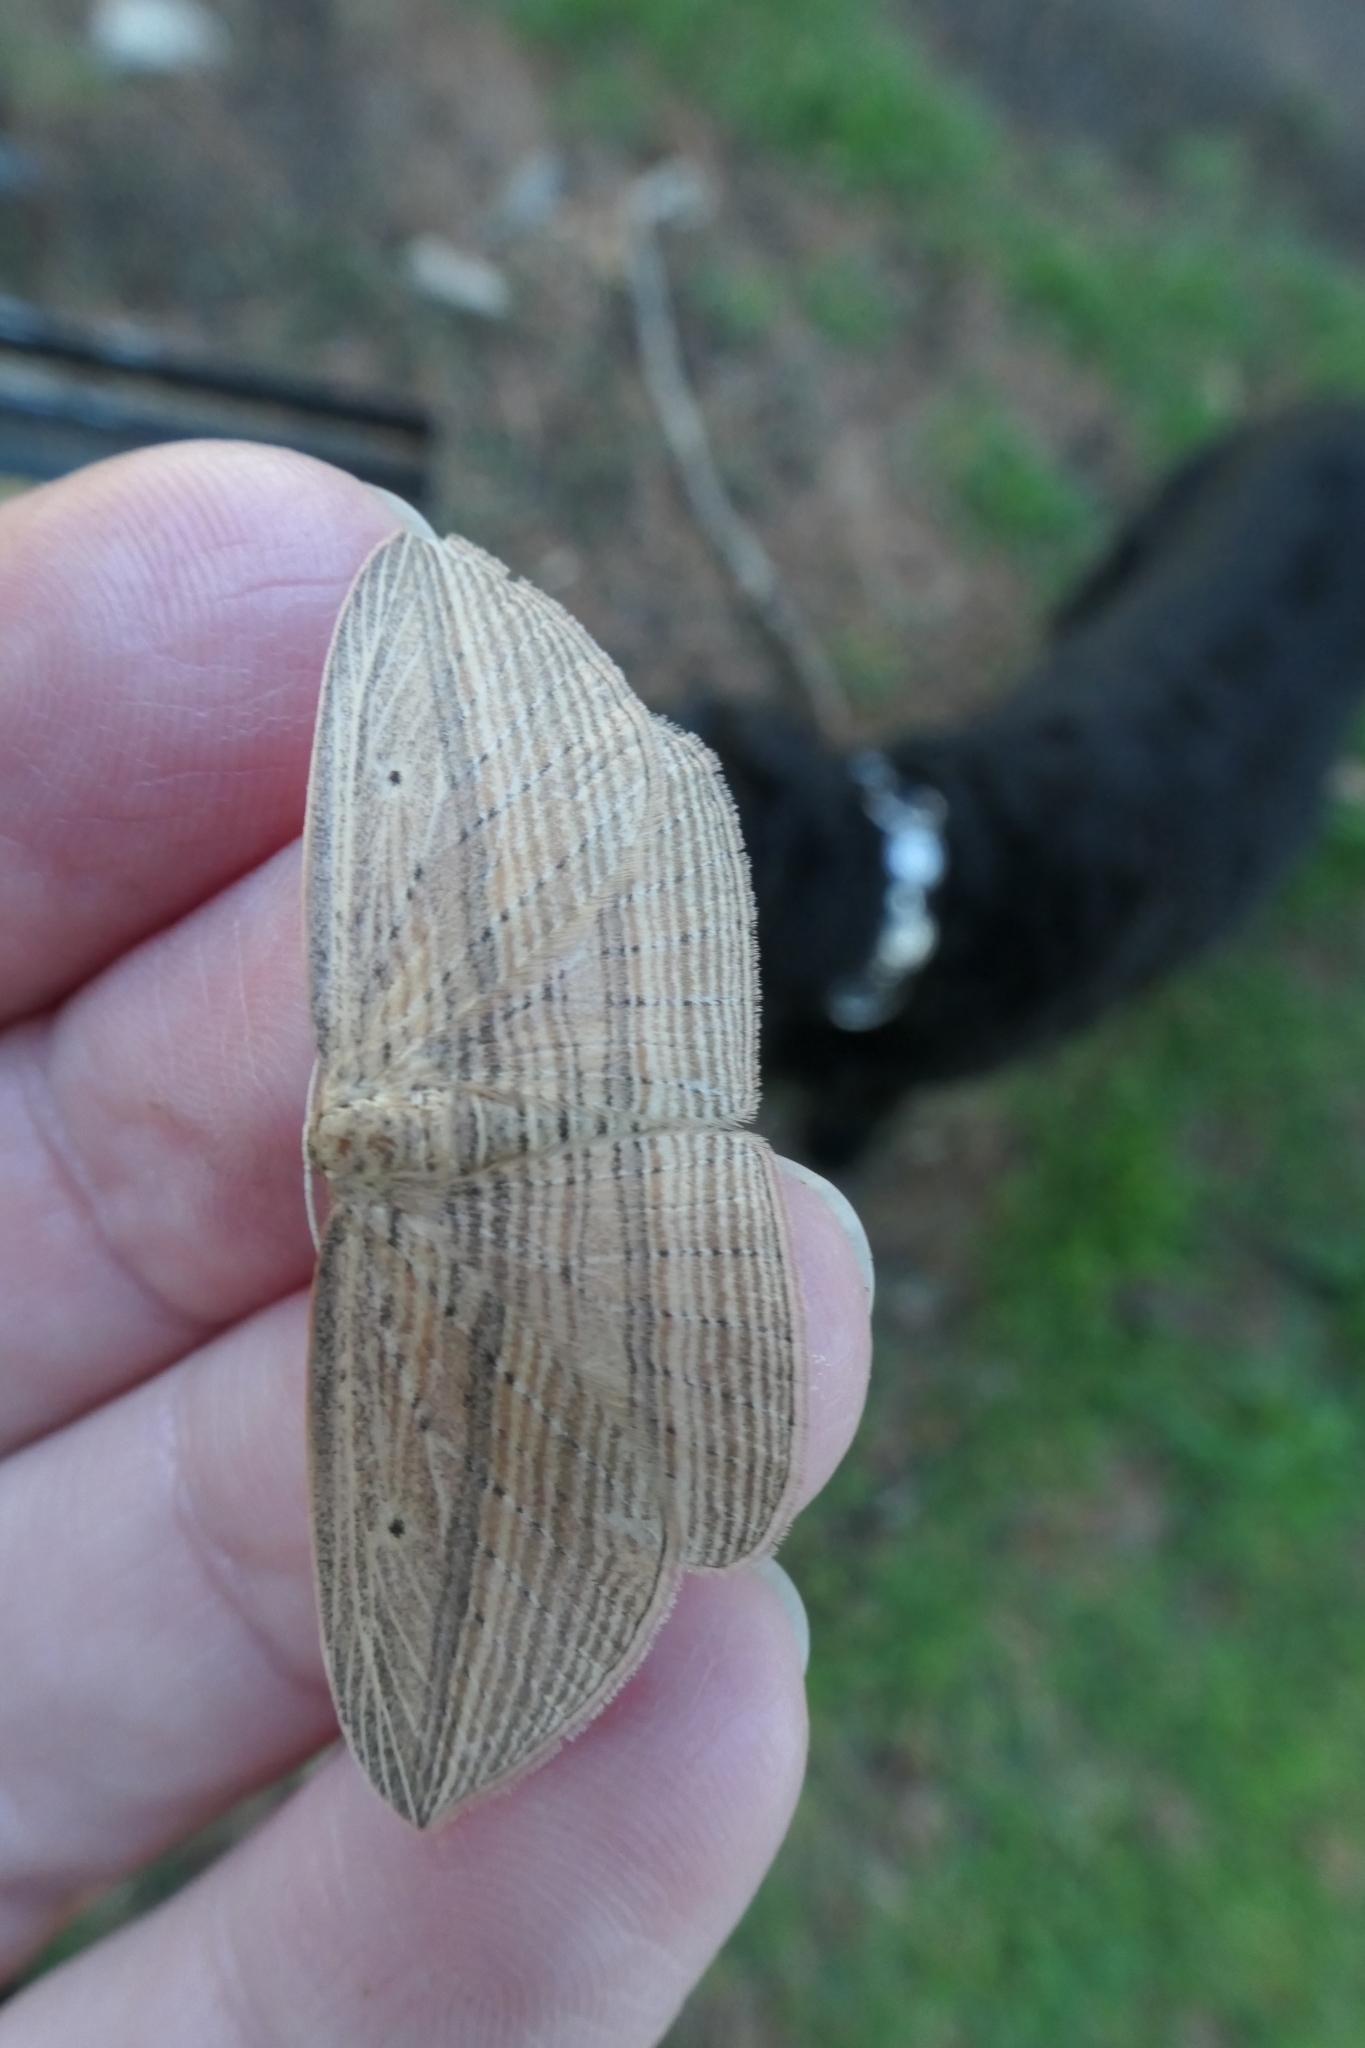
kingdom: Animalia
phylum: Arthropoda
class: Insecta
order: Lepidoptera
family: Geometridae
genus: Epiphryne
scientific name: Epiphryne verriculata
